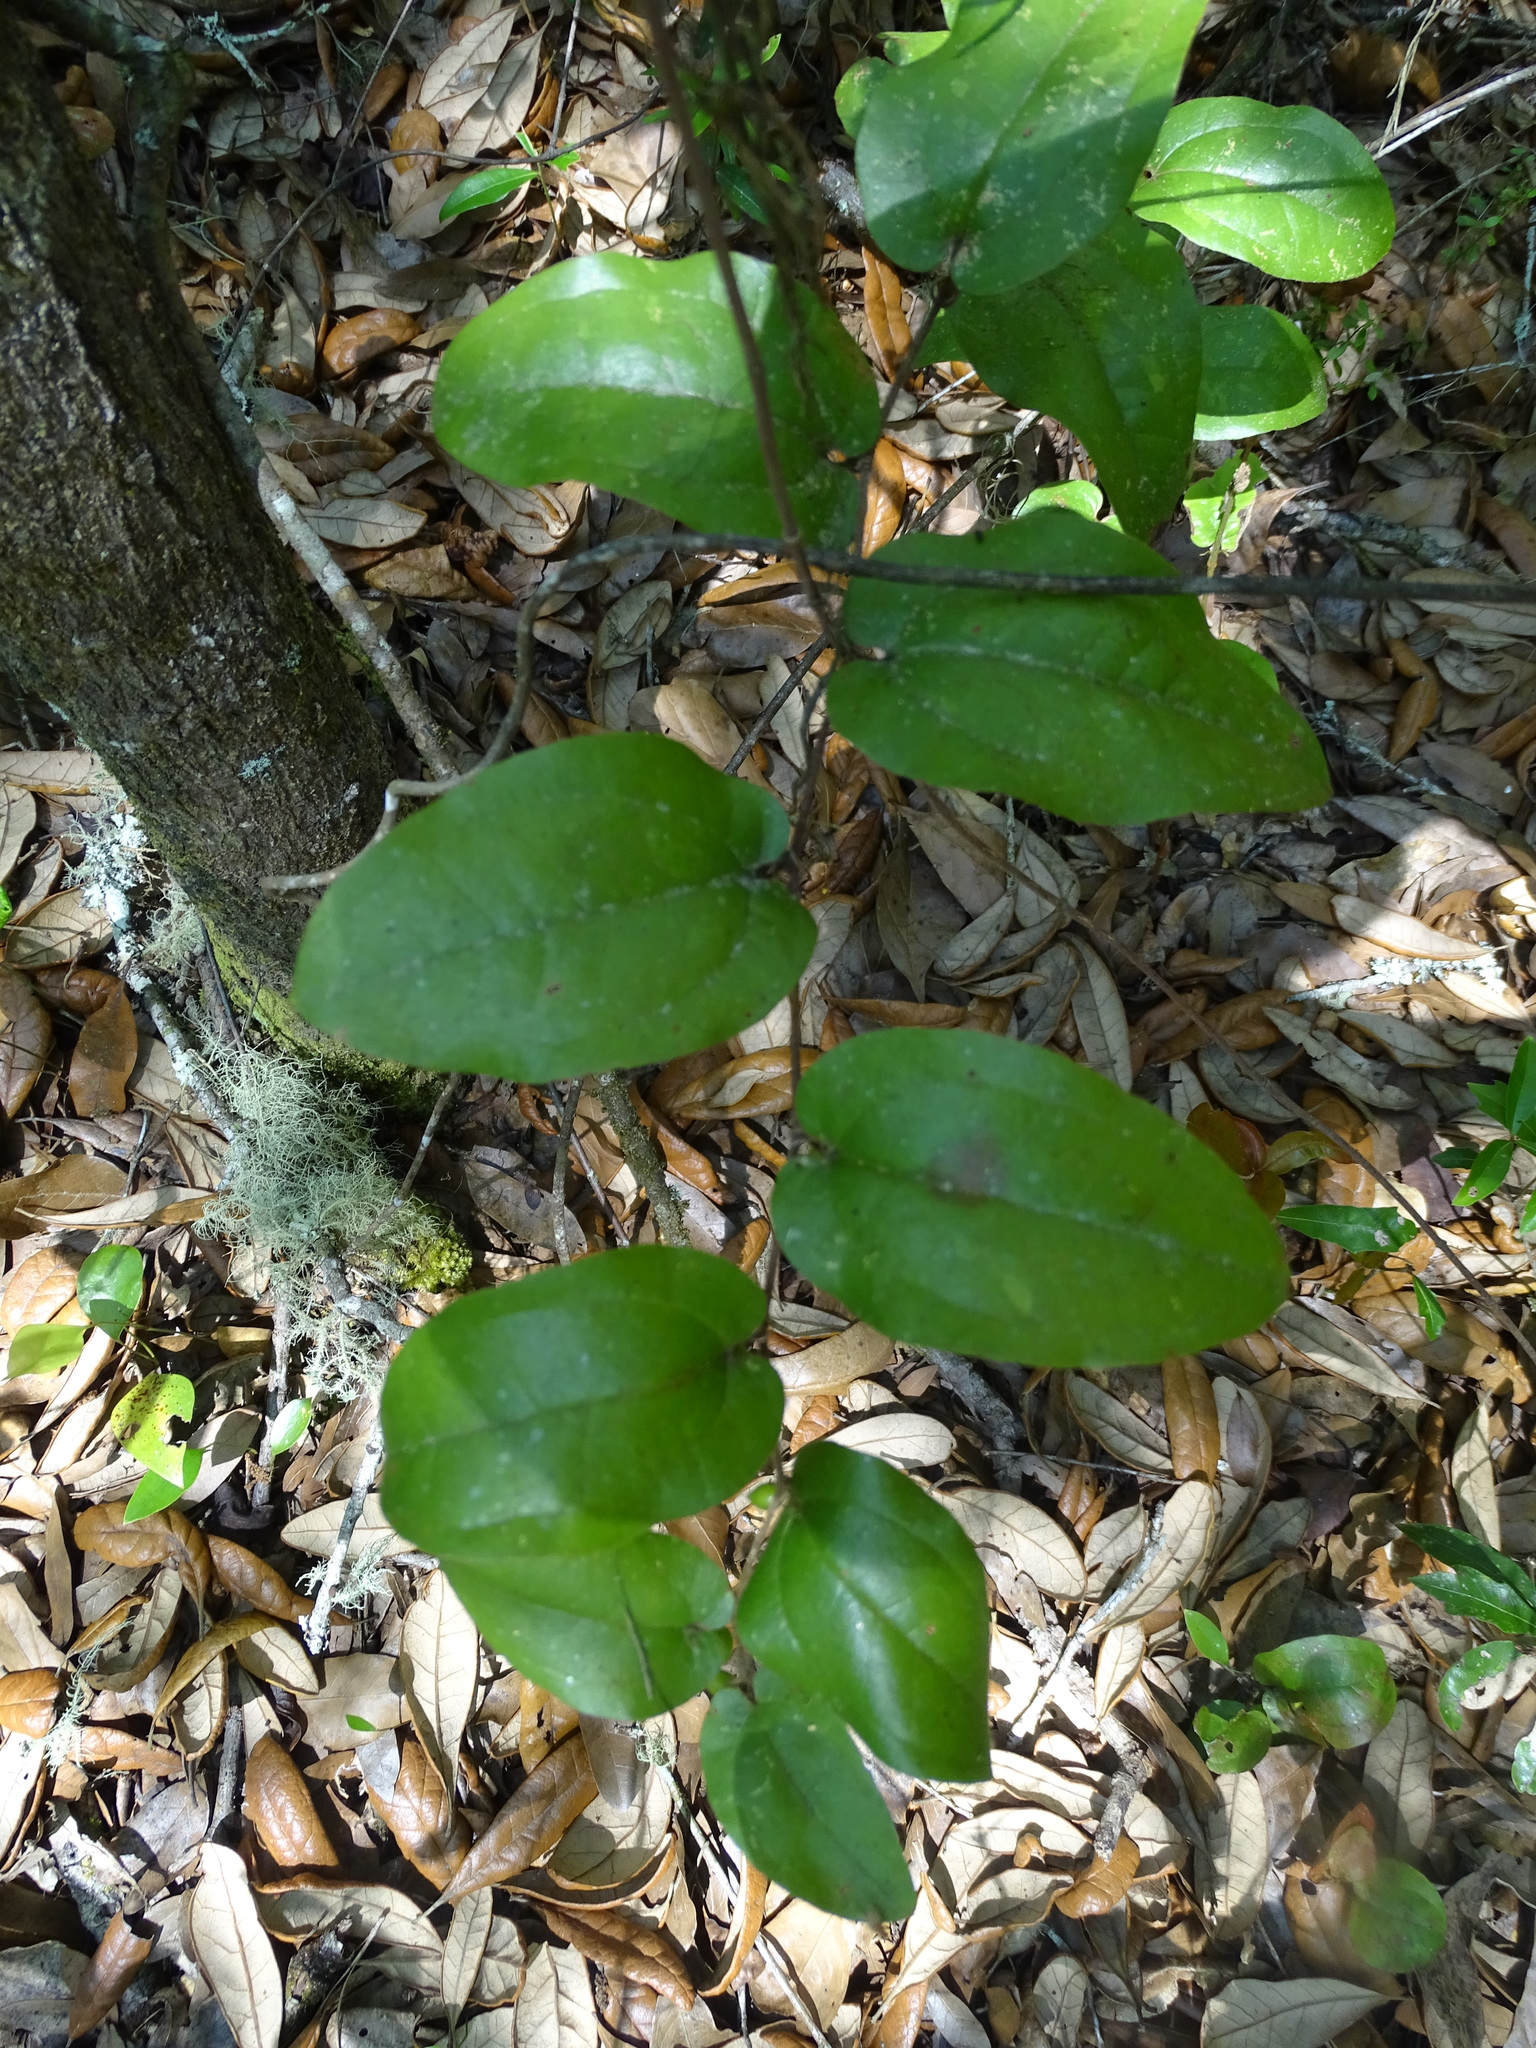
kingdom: Plantae
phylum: Tracheophyta
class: Liliopsida
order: Liliales
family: Smilacaceae
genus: Smilax
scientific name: Smilax pumila
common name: Sarsaparilla-vine
